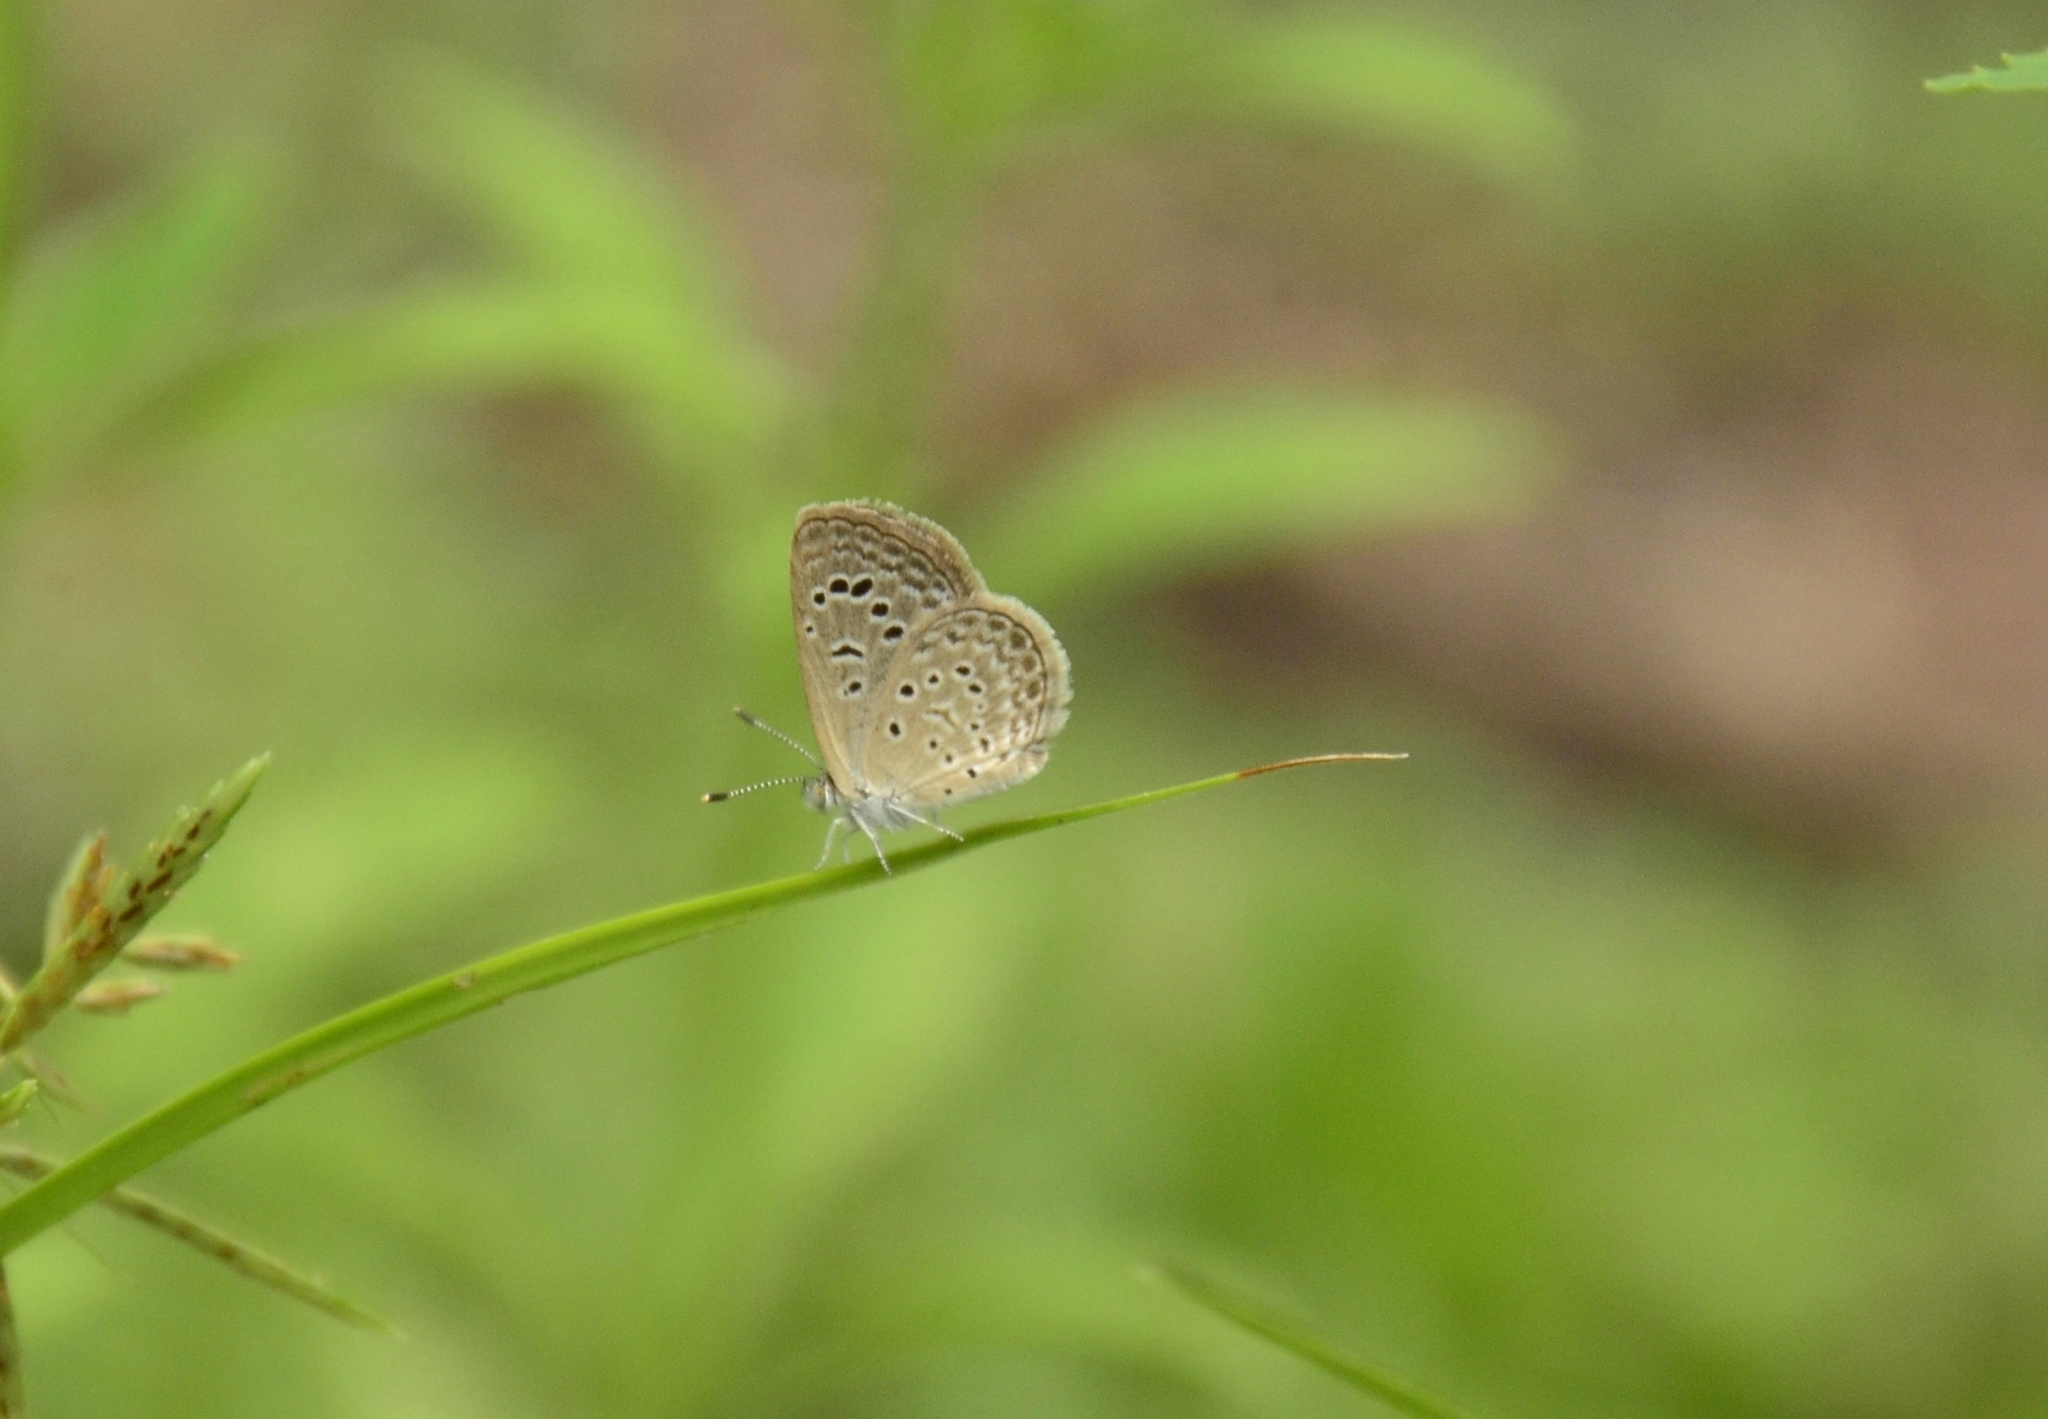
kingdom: Animalia
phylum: Arthropoda
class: Insecta
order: Lepidoptera
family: Lycaenidae
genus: Zizeeria
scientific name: Zizeeria karsandra
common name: Dark grass blue
